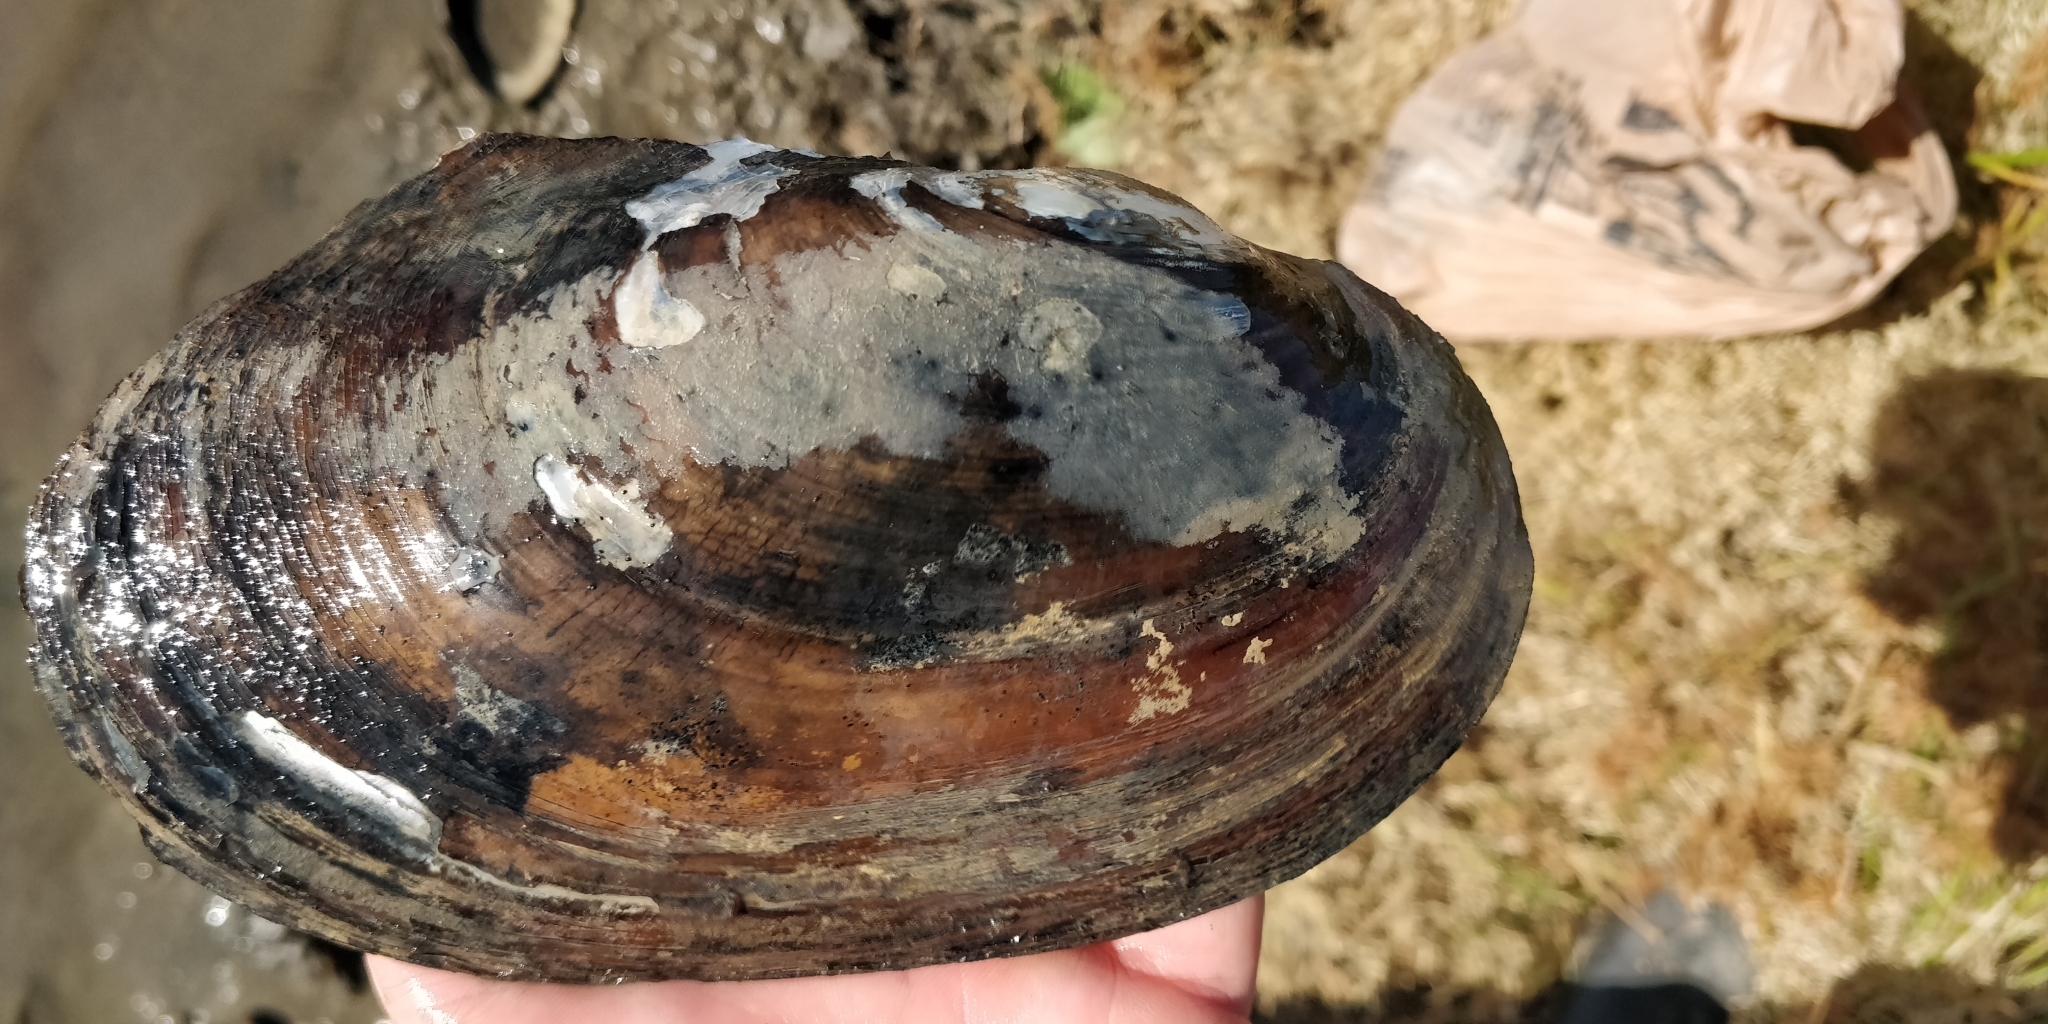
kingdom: Animalia
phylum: Mollusca
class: Bivalvia
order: Unionida
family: Unionidae
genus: Potamilus
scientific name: Potamilus fragilis
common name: Fragile papershell
